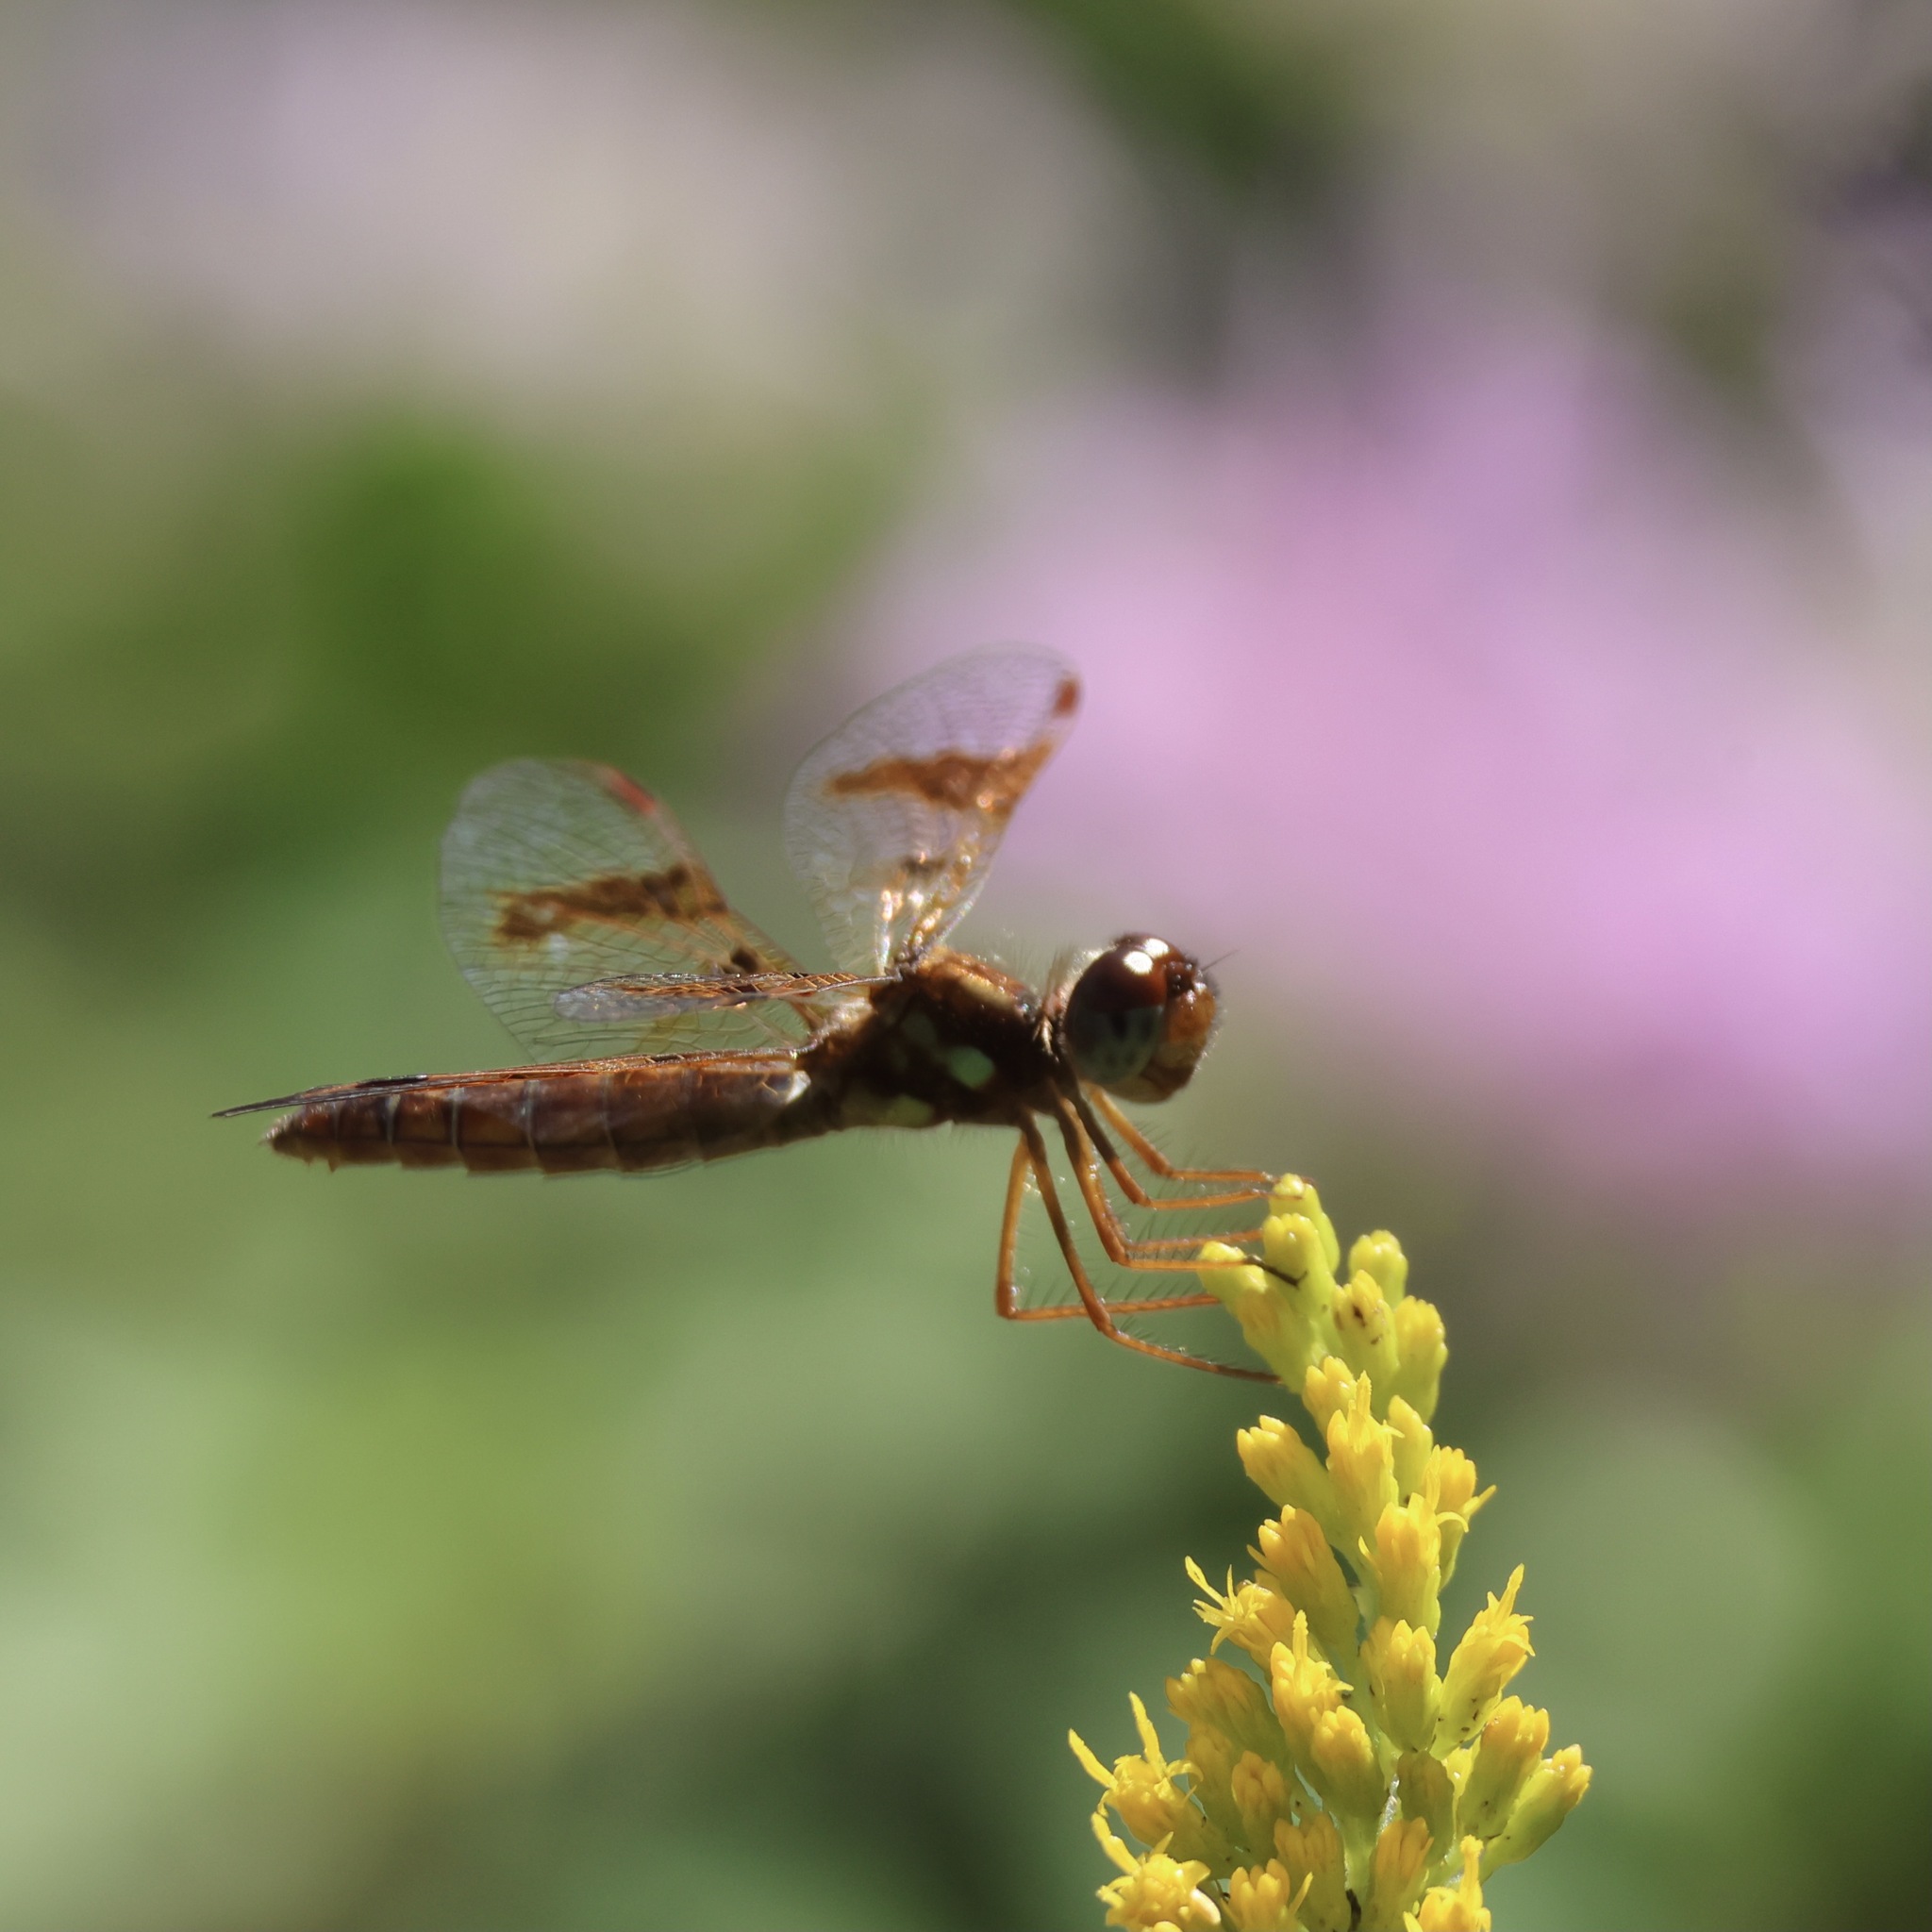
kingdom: Animalia
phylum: Arthropoda
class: Insecta
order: Odonata
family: Libellulidae
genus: Perithemis
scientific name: Perithemis tenera
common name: Eastern amberwing
